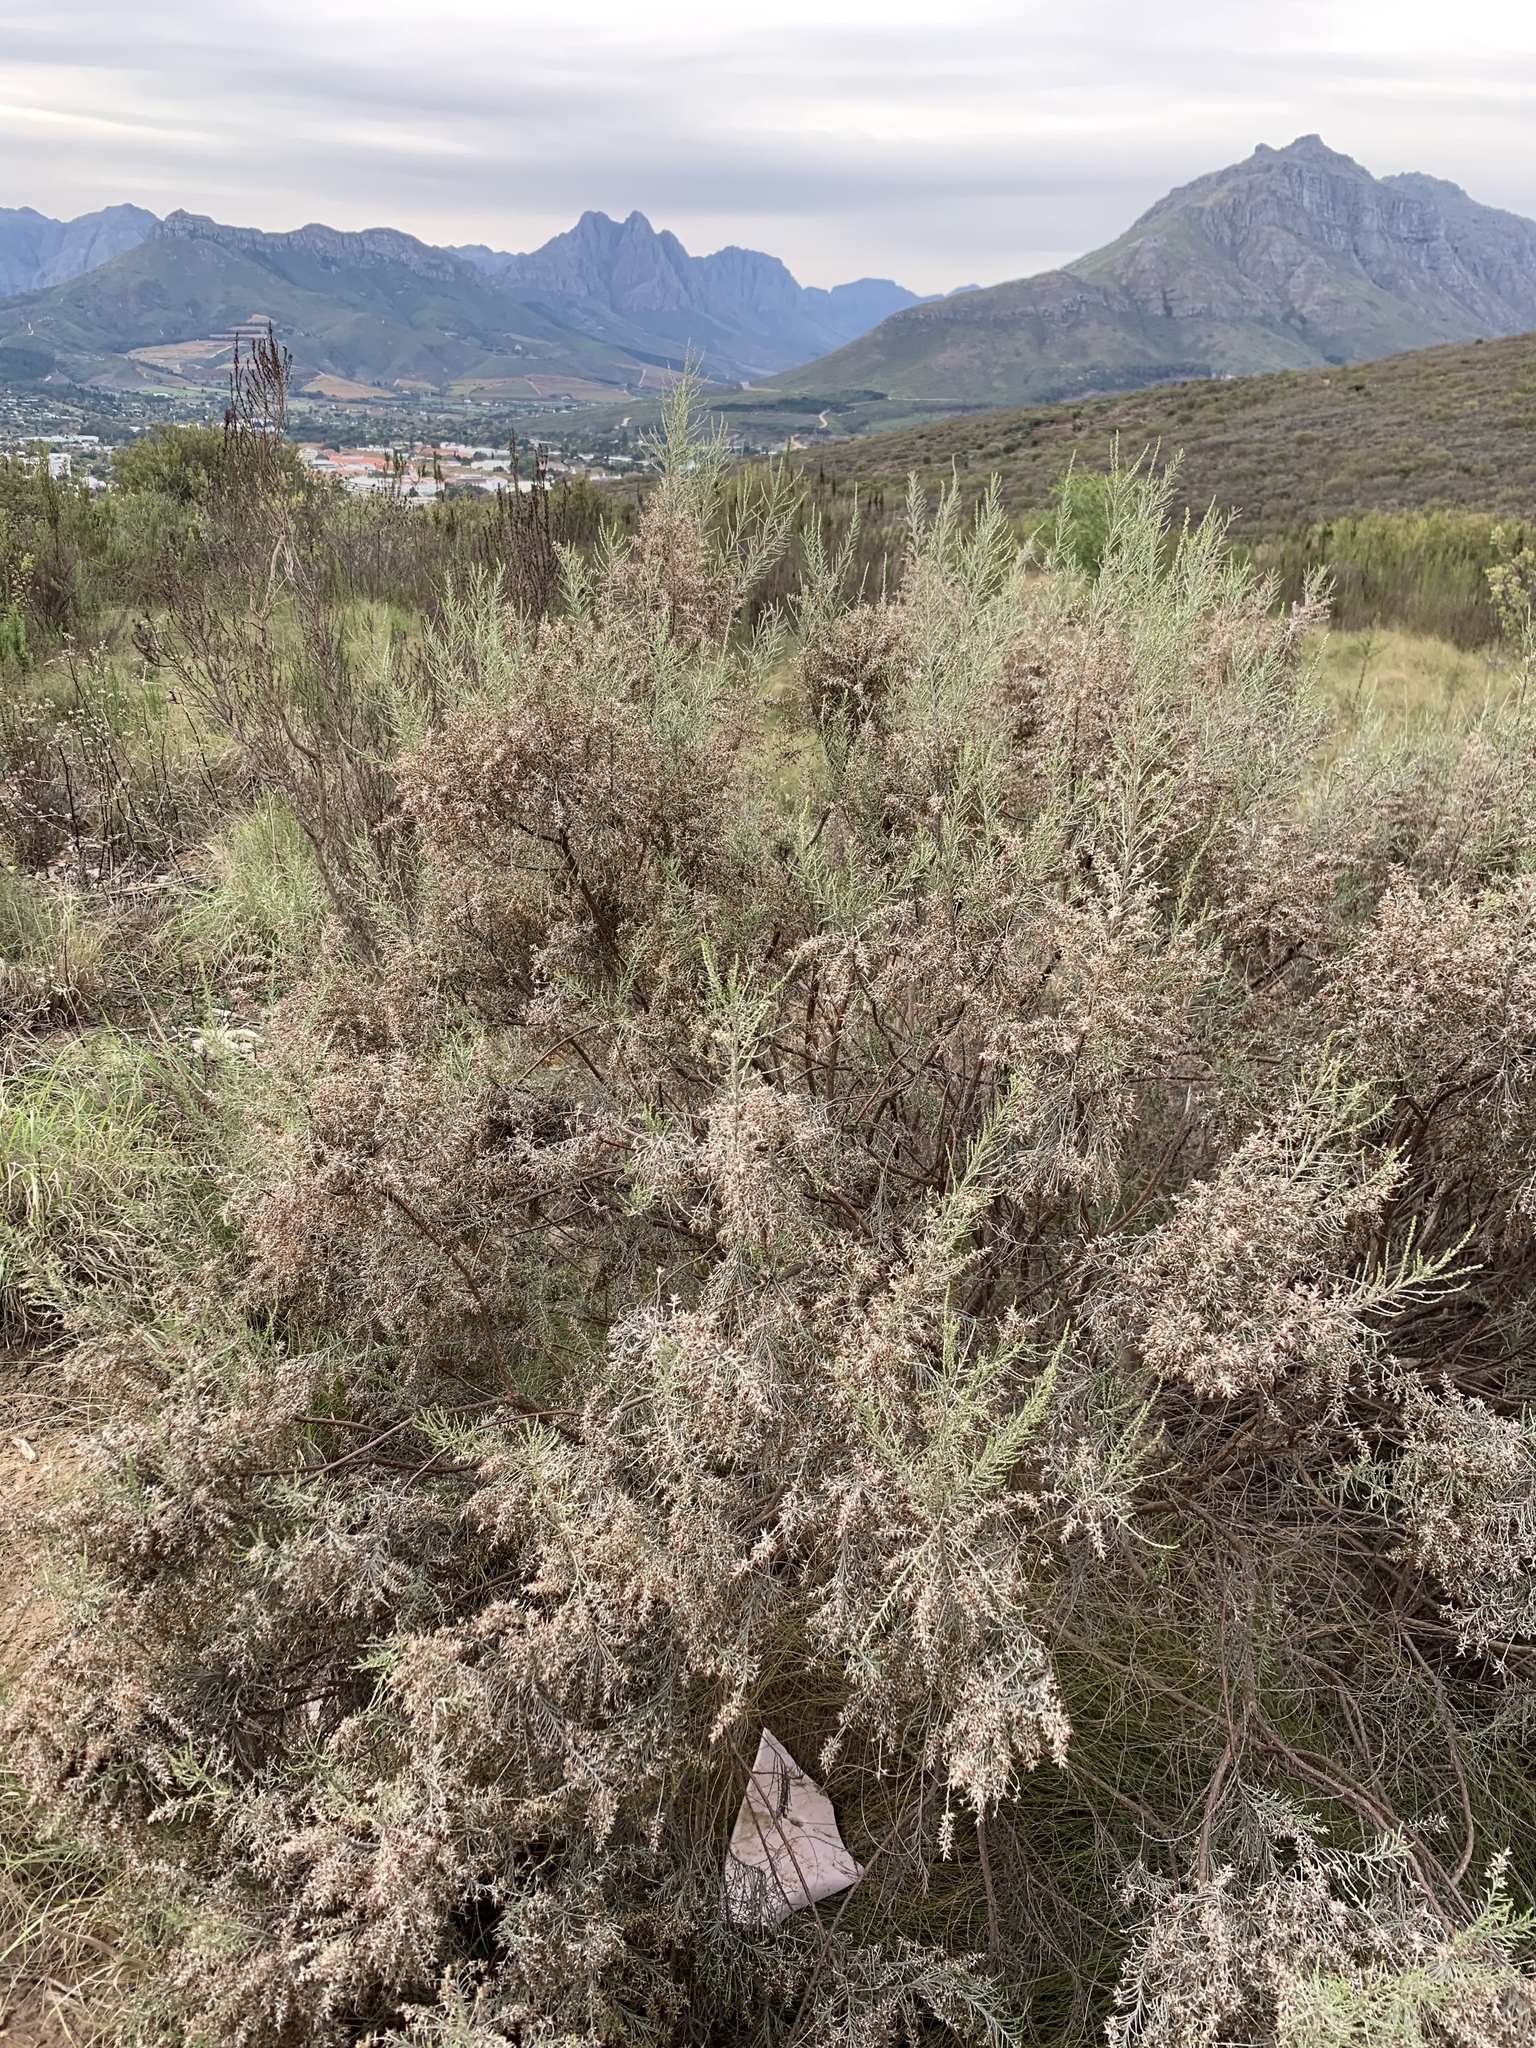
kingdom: Plantae
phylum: Tracheophyta
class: Magnoliopsida
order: Asterales
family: Asteraceae
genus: Dicerothamnus
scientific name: Dicerothamnus rhinocerotis
